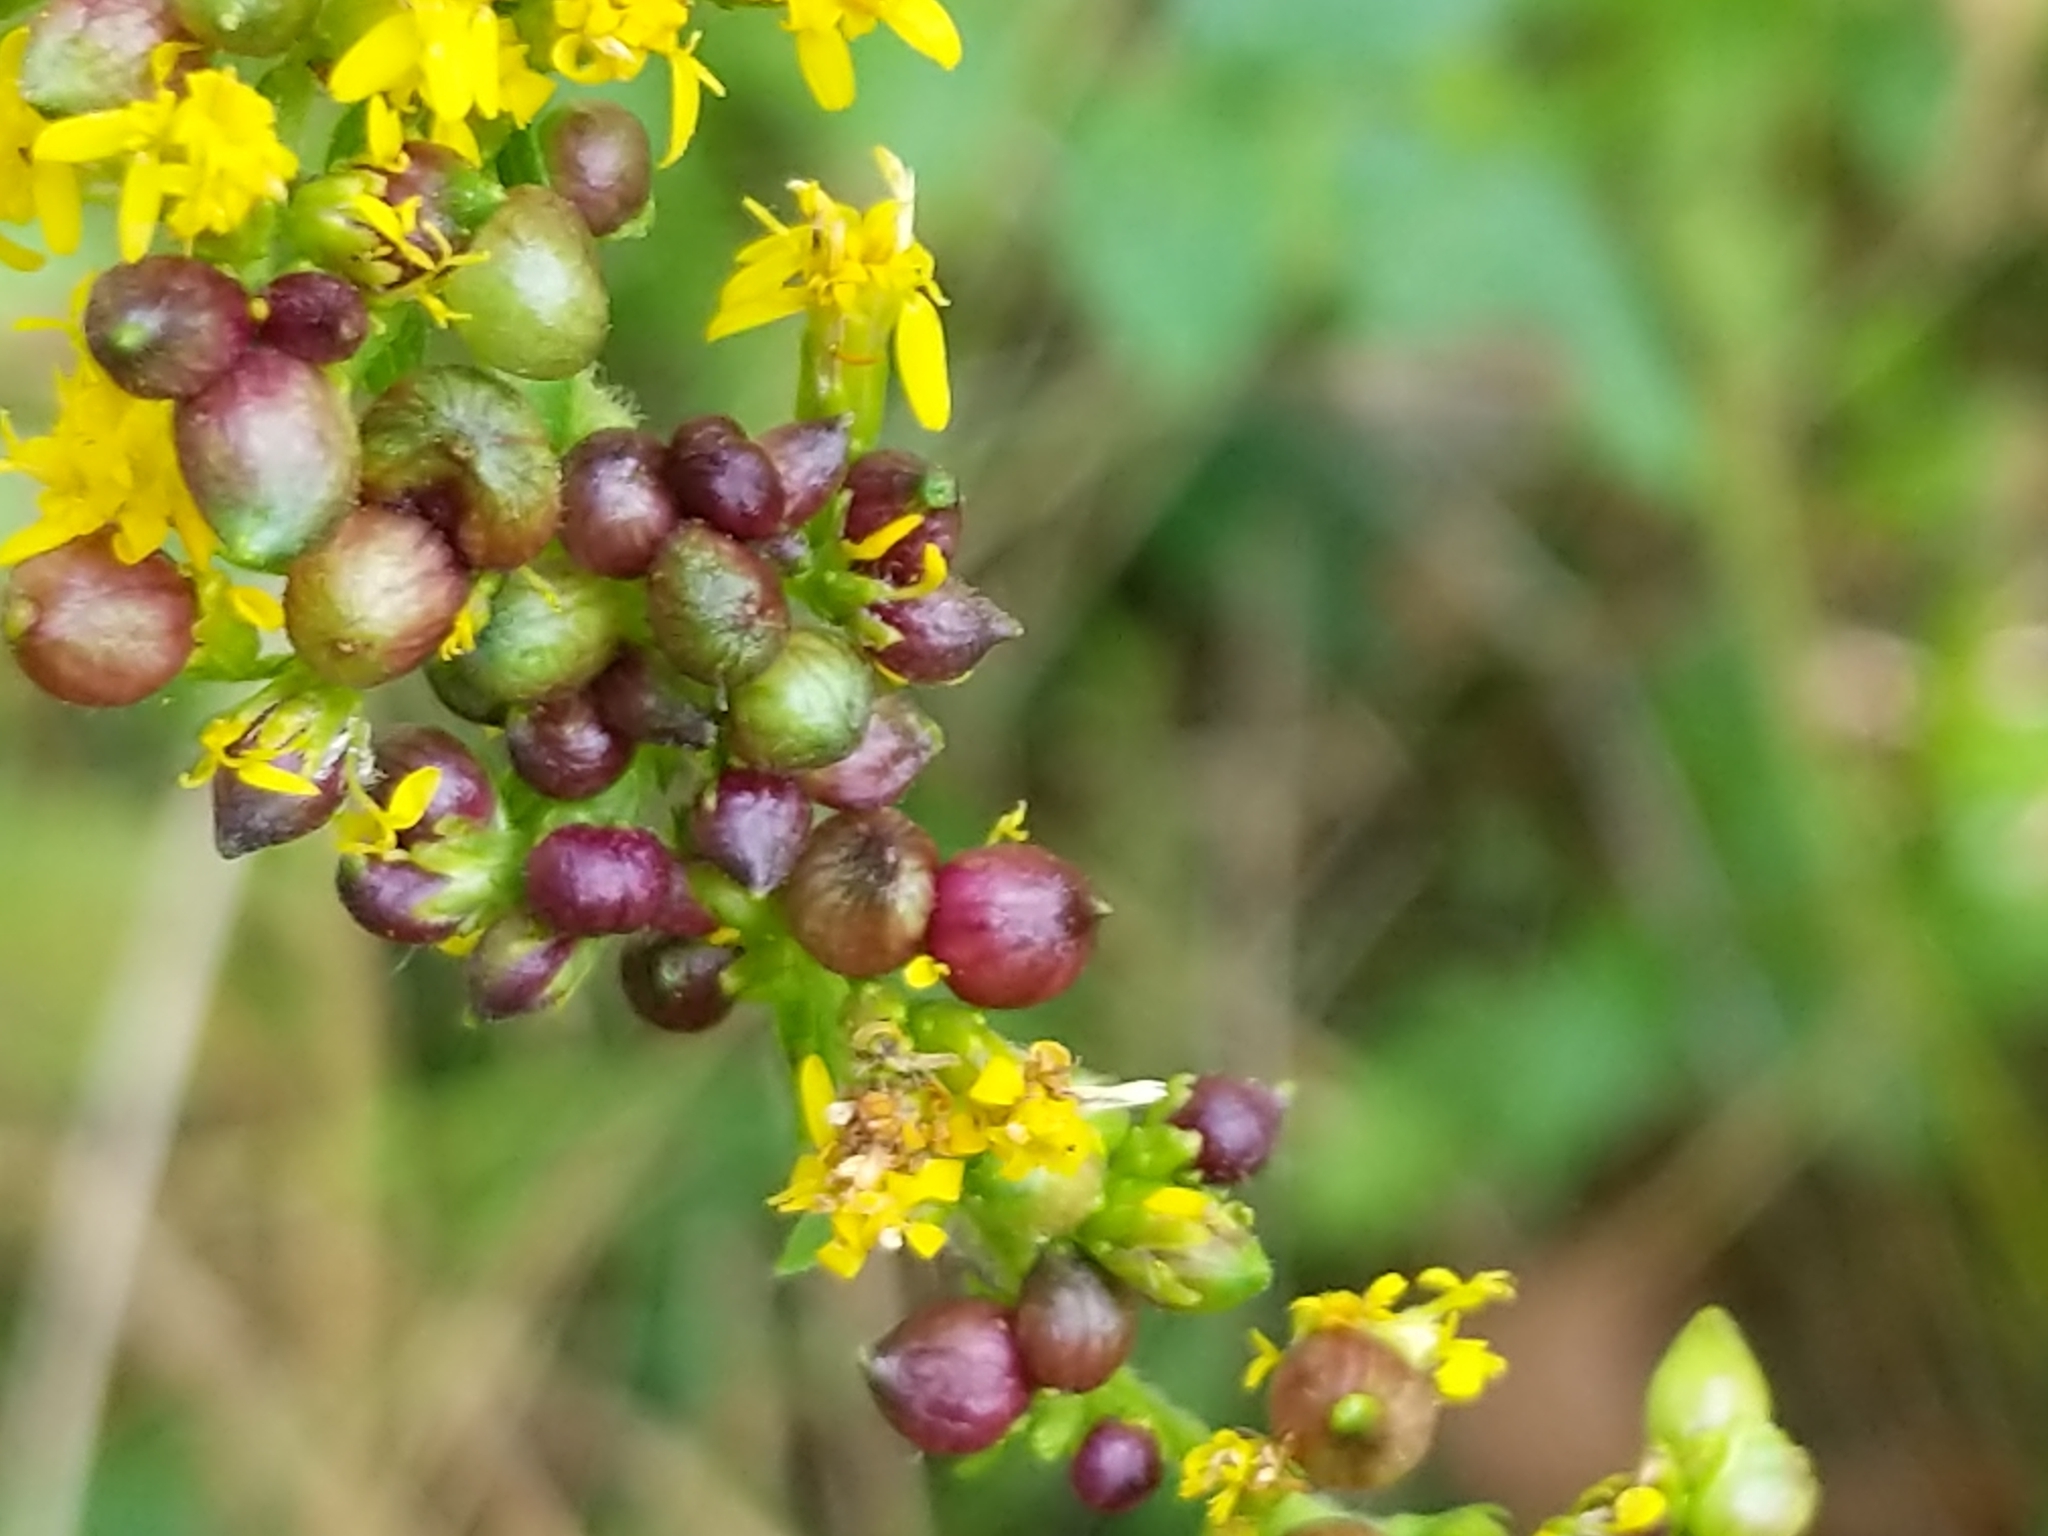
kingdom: Animalia
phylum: Arthropoda
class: Insecta
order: Diptera
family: Cecidomyiidae
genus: Schizomyia
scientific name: Schizomyia racemicola
